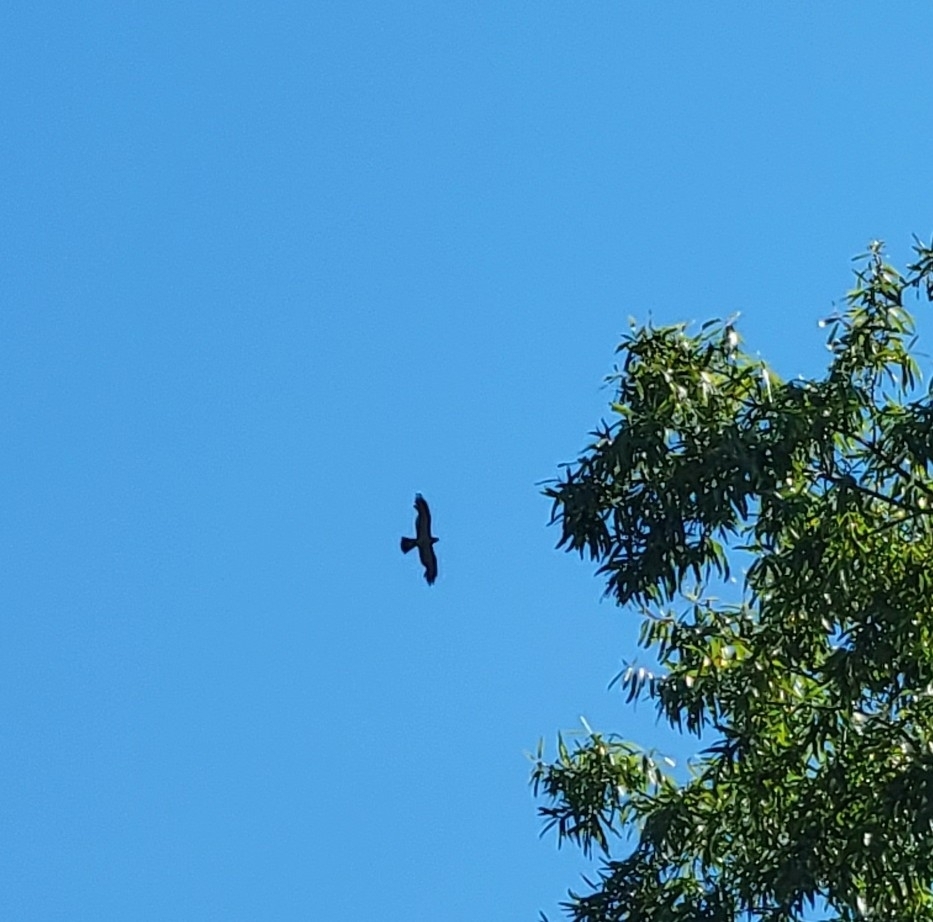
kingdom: Animalia
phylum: Chordata
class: Aves
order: Accipitriformes
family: Accipitridae
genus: Ictinia
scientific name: Ictinia mississippiensis
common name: Mississippi kite
